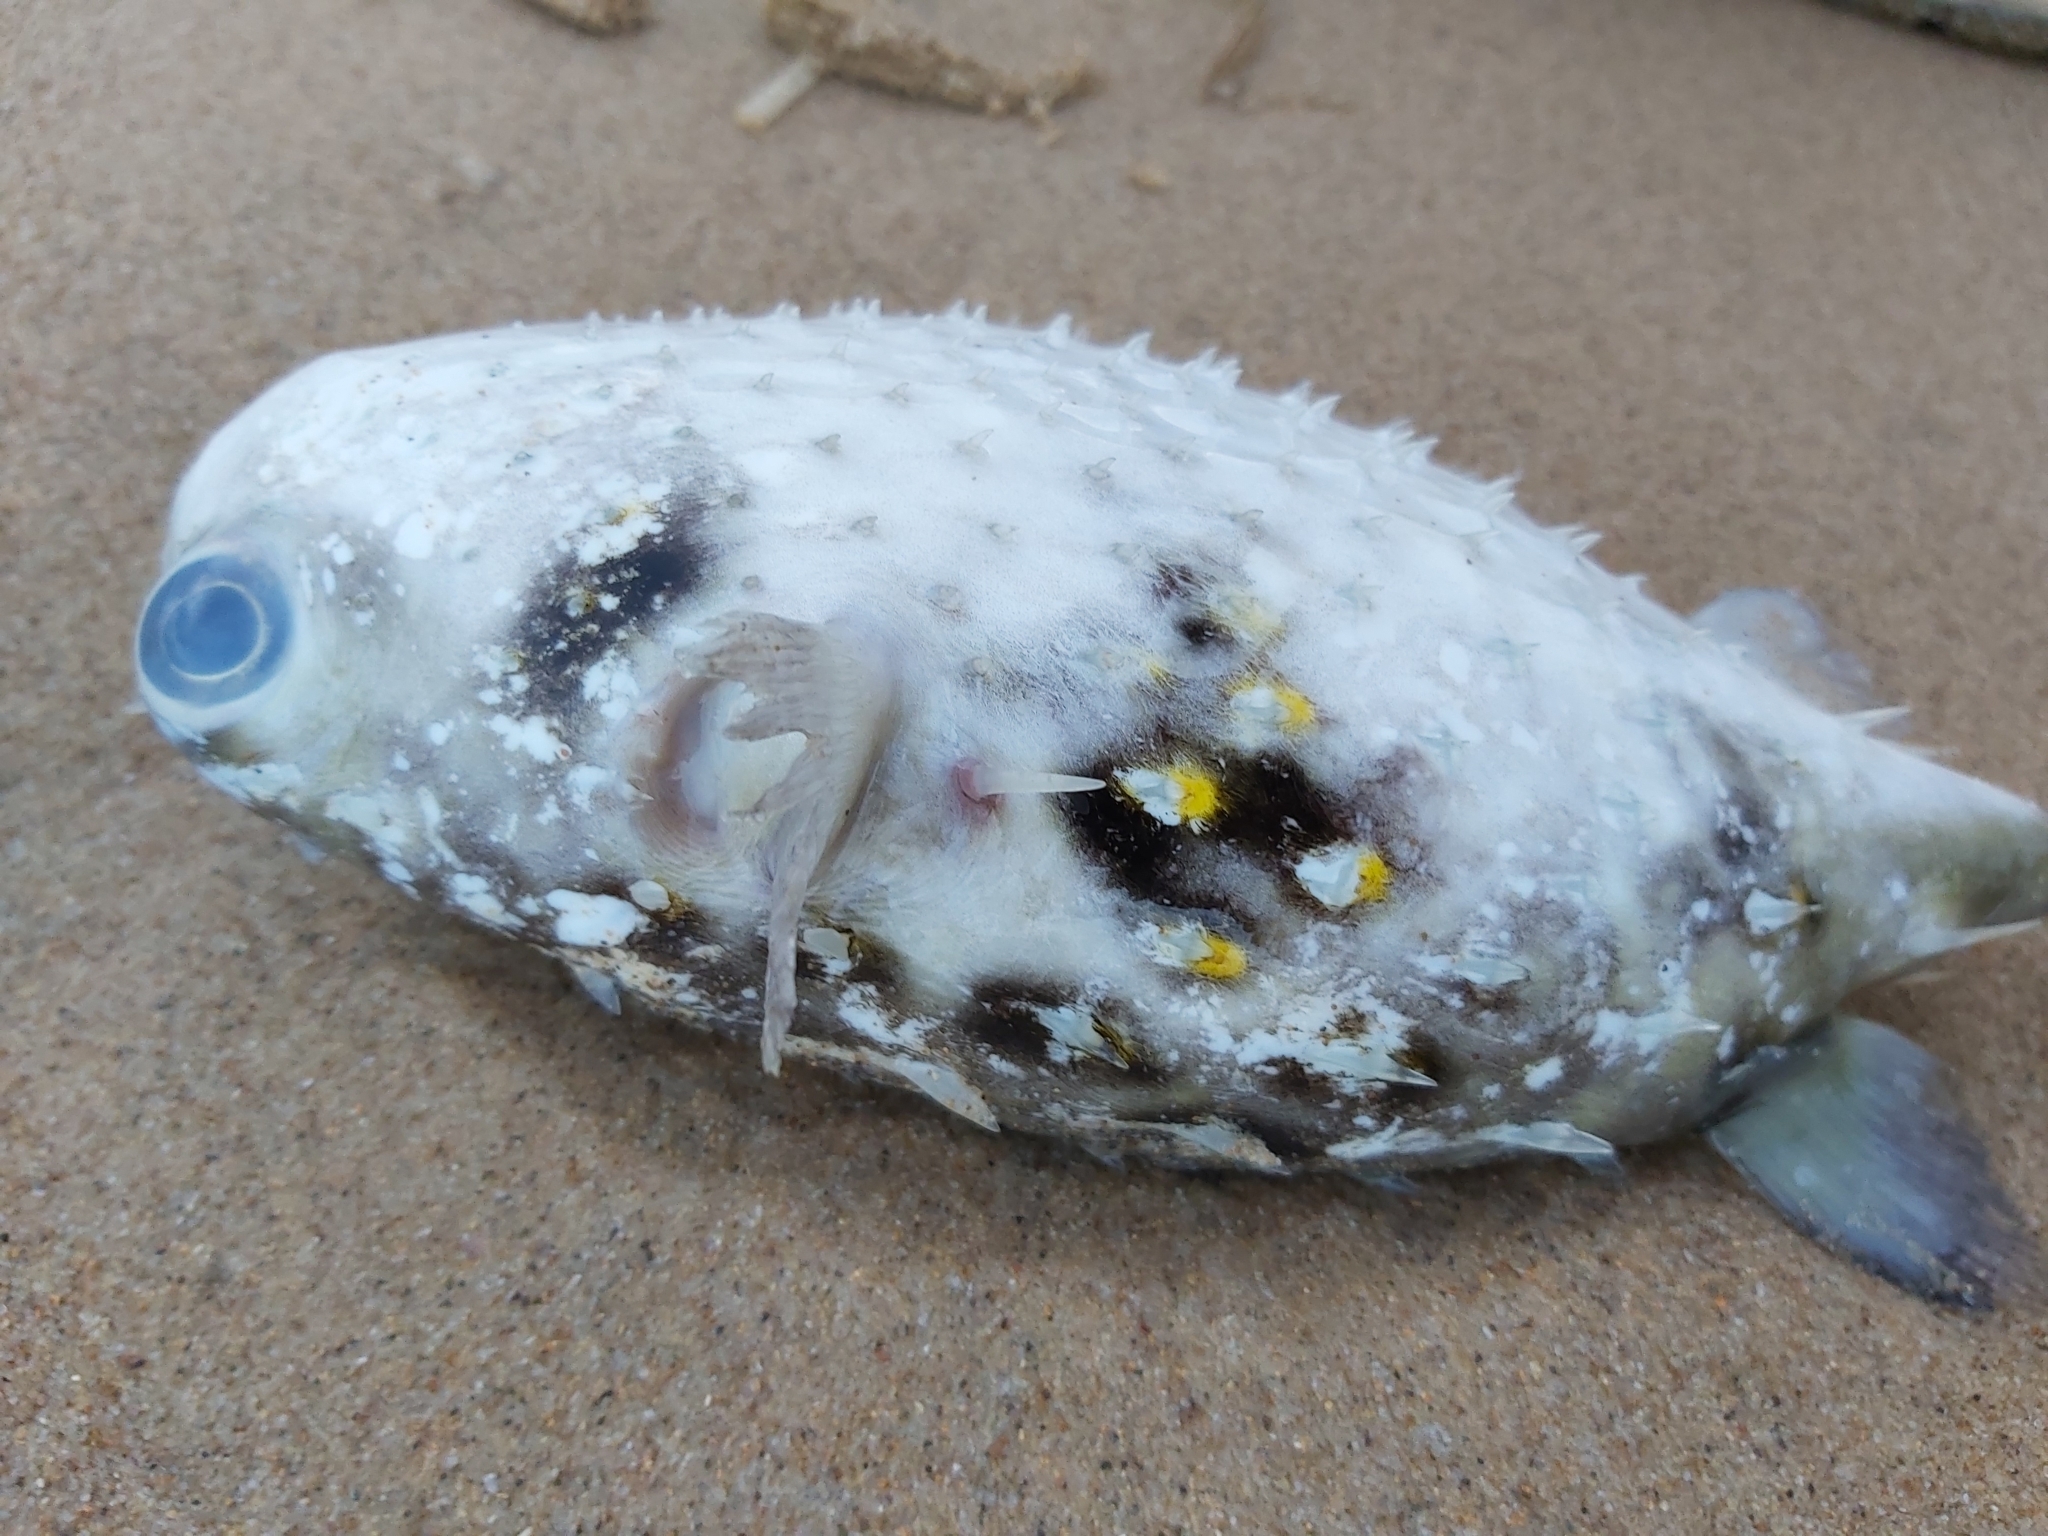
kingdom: Animalia
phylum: Chordata
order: Tetraodontiformes
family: Diodontidae
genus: Allomycterus
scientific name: Allomycterus pilatus
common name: No common name
